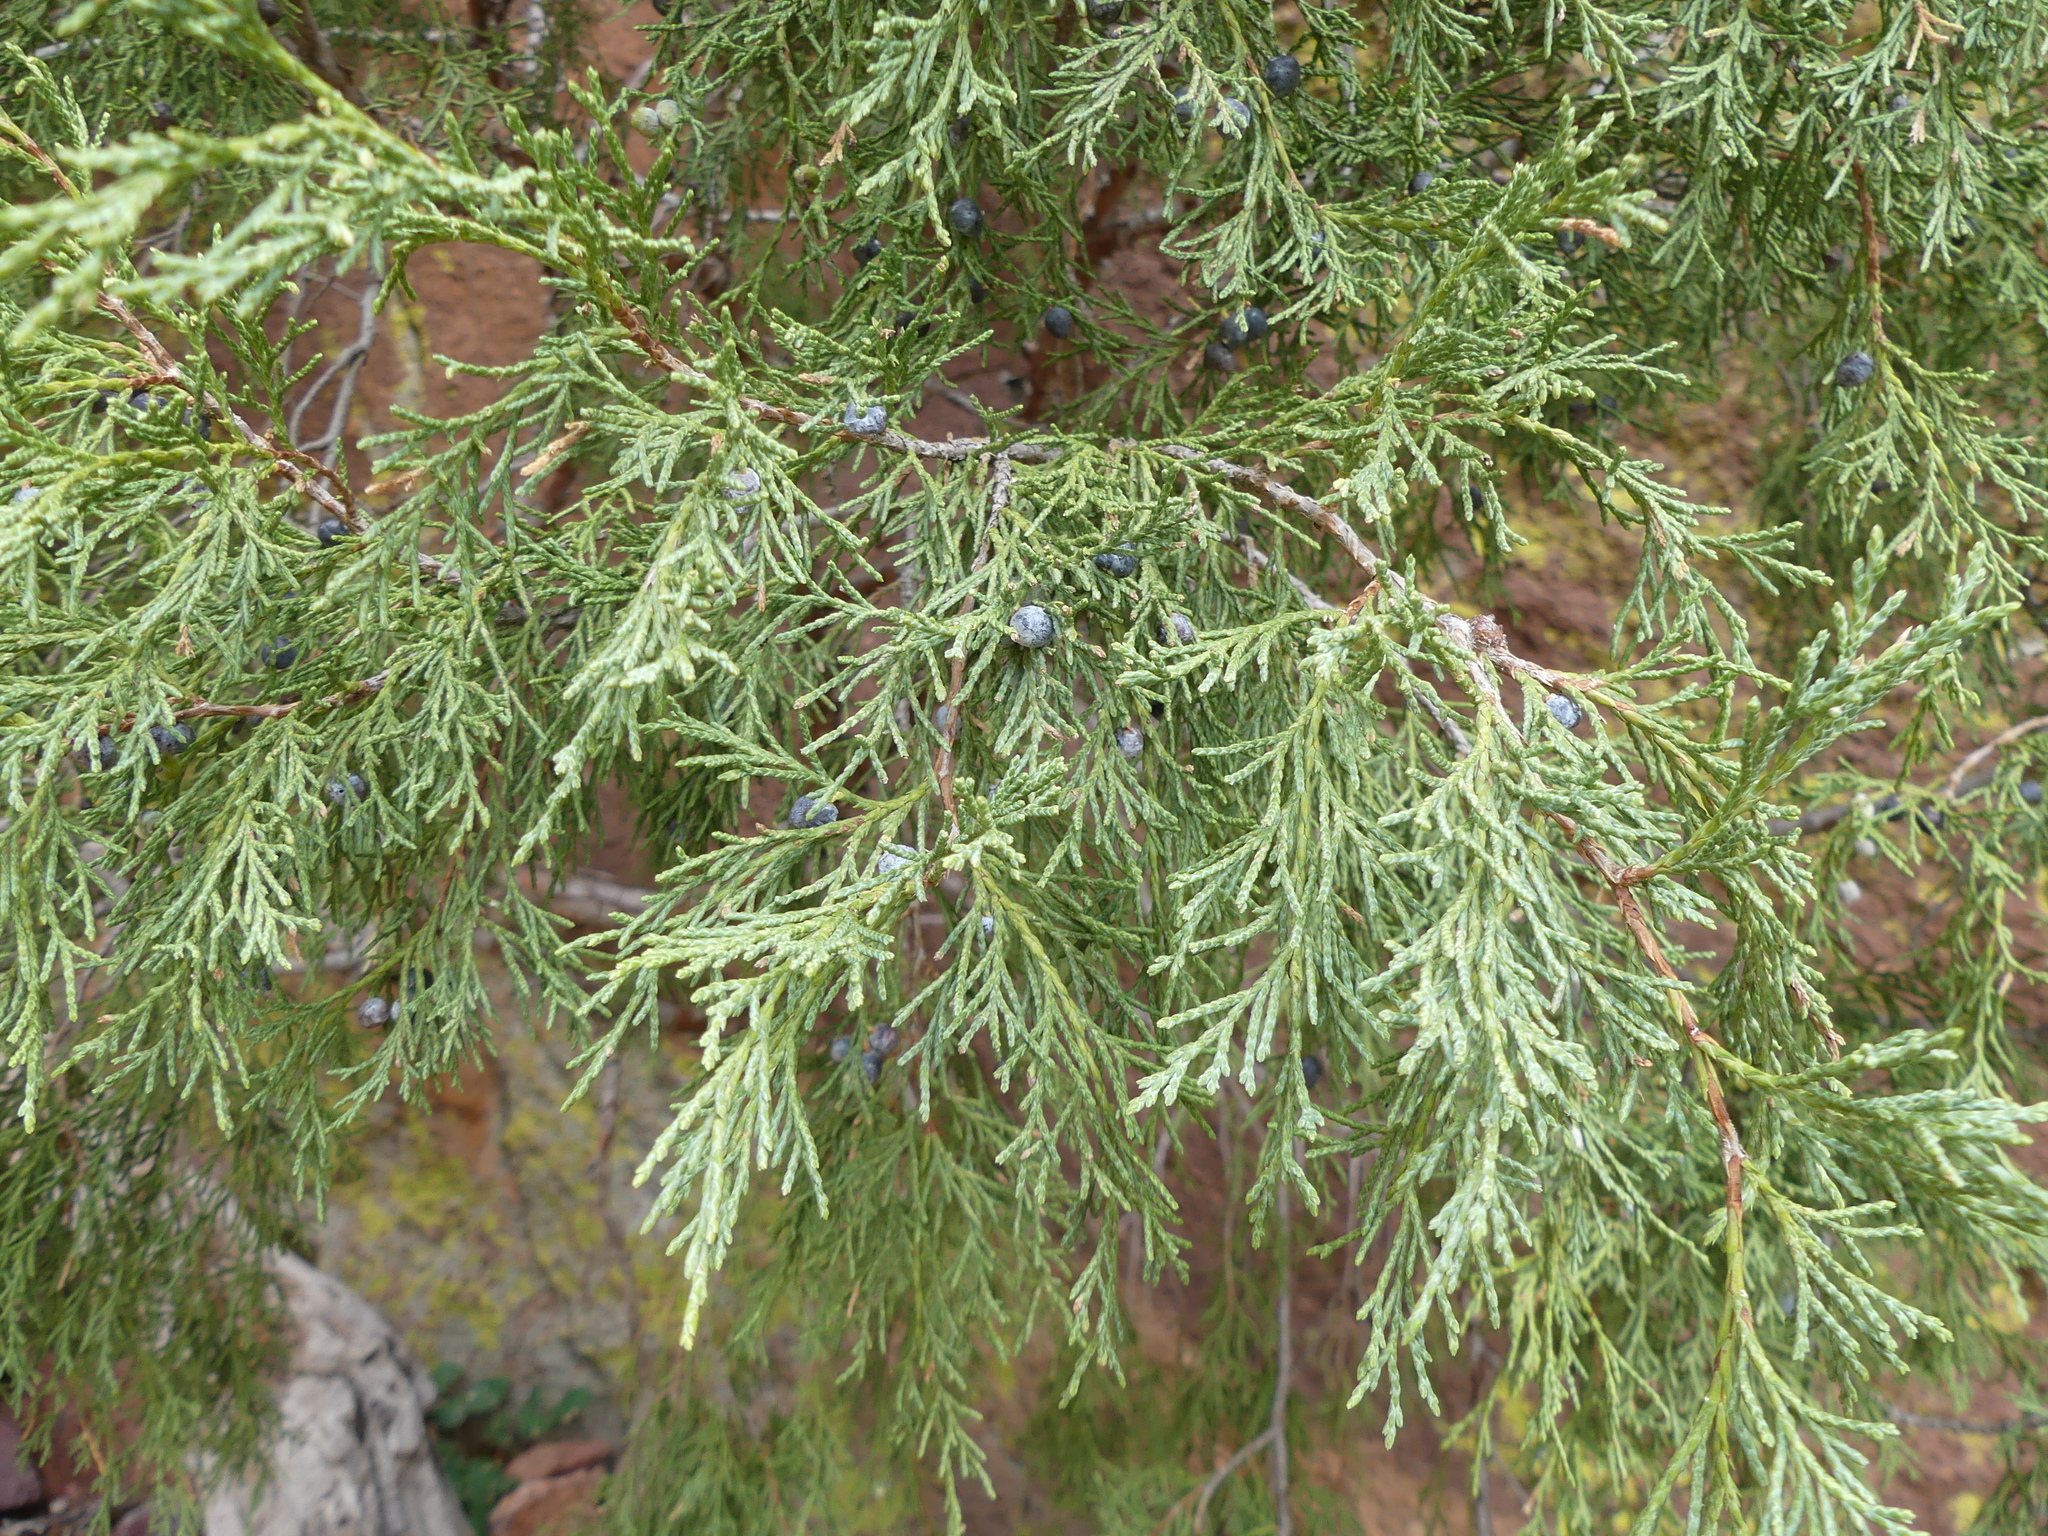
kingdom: Plantae
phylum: Tracheophyta
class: Pinopsida
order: Pinales
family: Cupressaceae
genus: Juniperus
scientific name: Juniperus scopulorum
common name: Rocky mountain juniper
